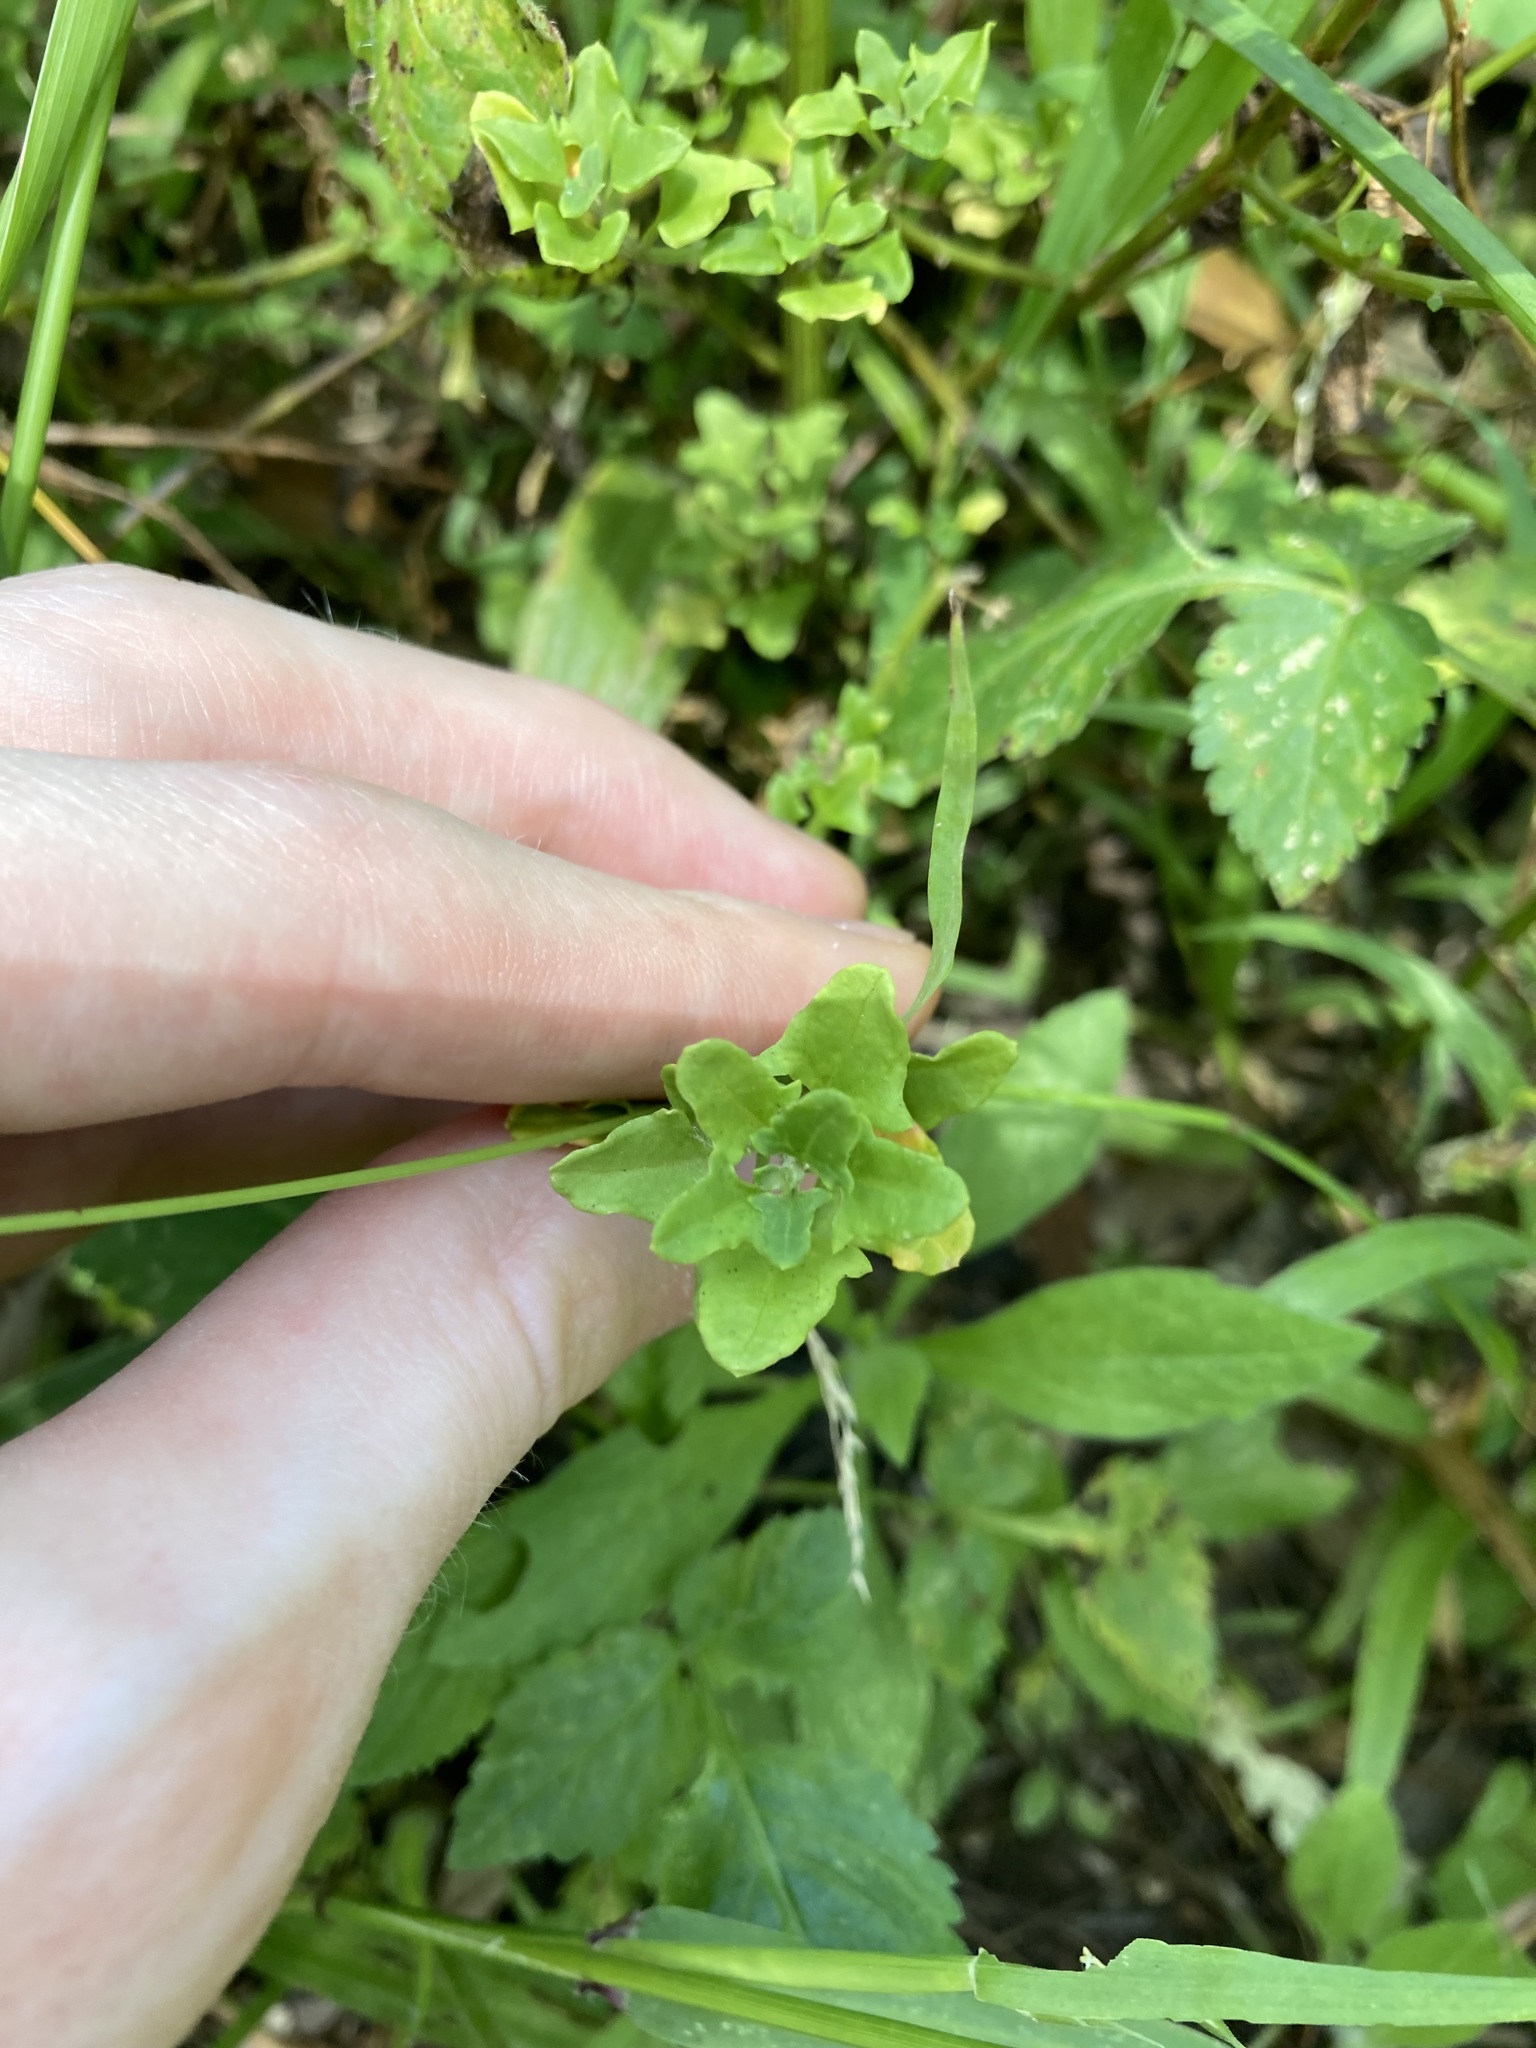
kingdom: Plantae
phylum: Tracheophyta
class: Magnoliopsida
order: Caryophyllales
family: Amaranthaceae
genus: Chenopodium
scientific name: Chenopodium robertianum
